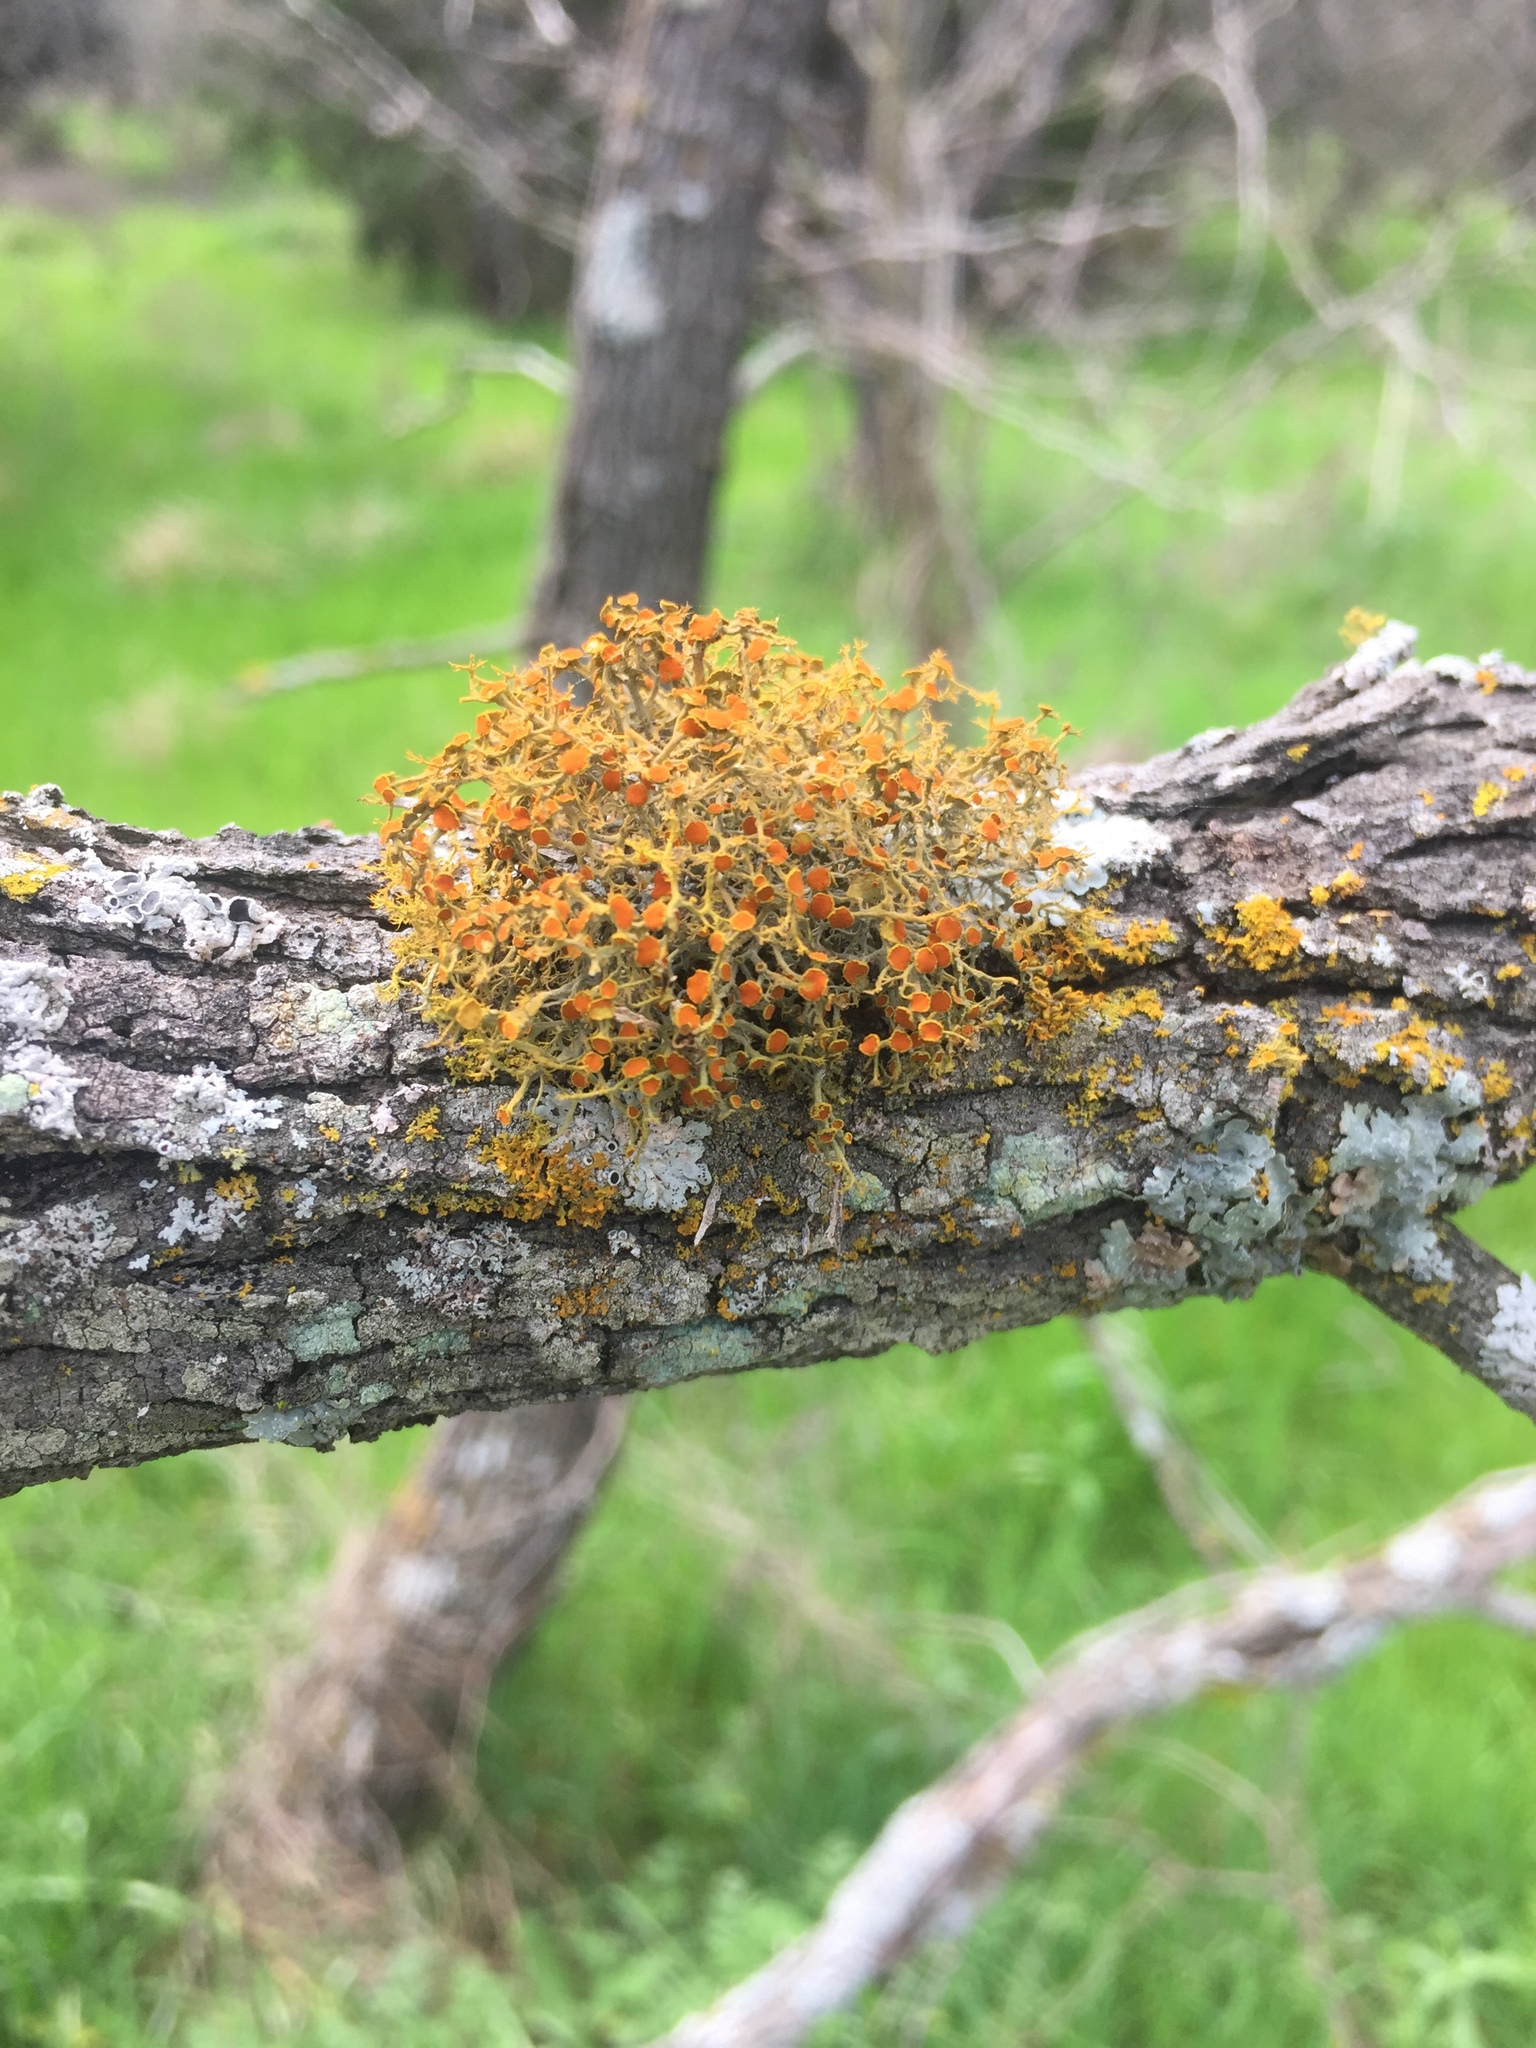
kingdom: Fungi
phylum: Ascomycota
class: Lecanoromycetes
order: Teloschistales
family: Teloschistaceae
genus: Teloschistes
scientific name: Teloschistes exilis
